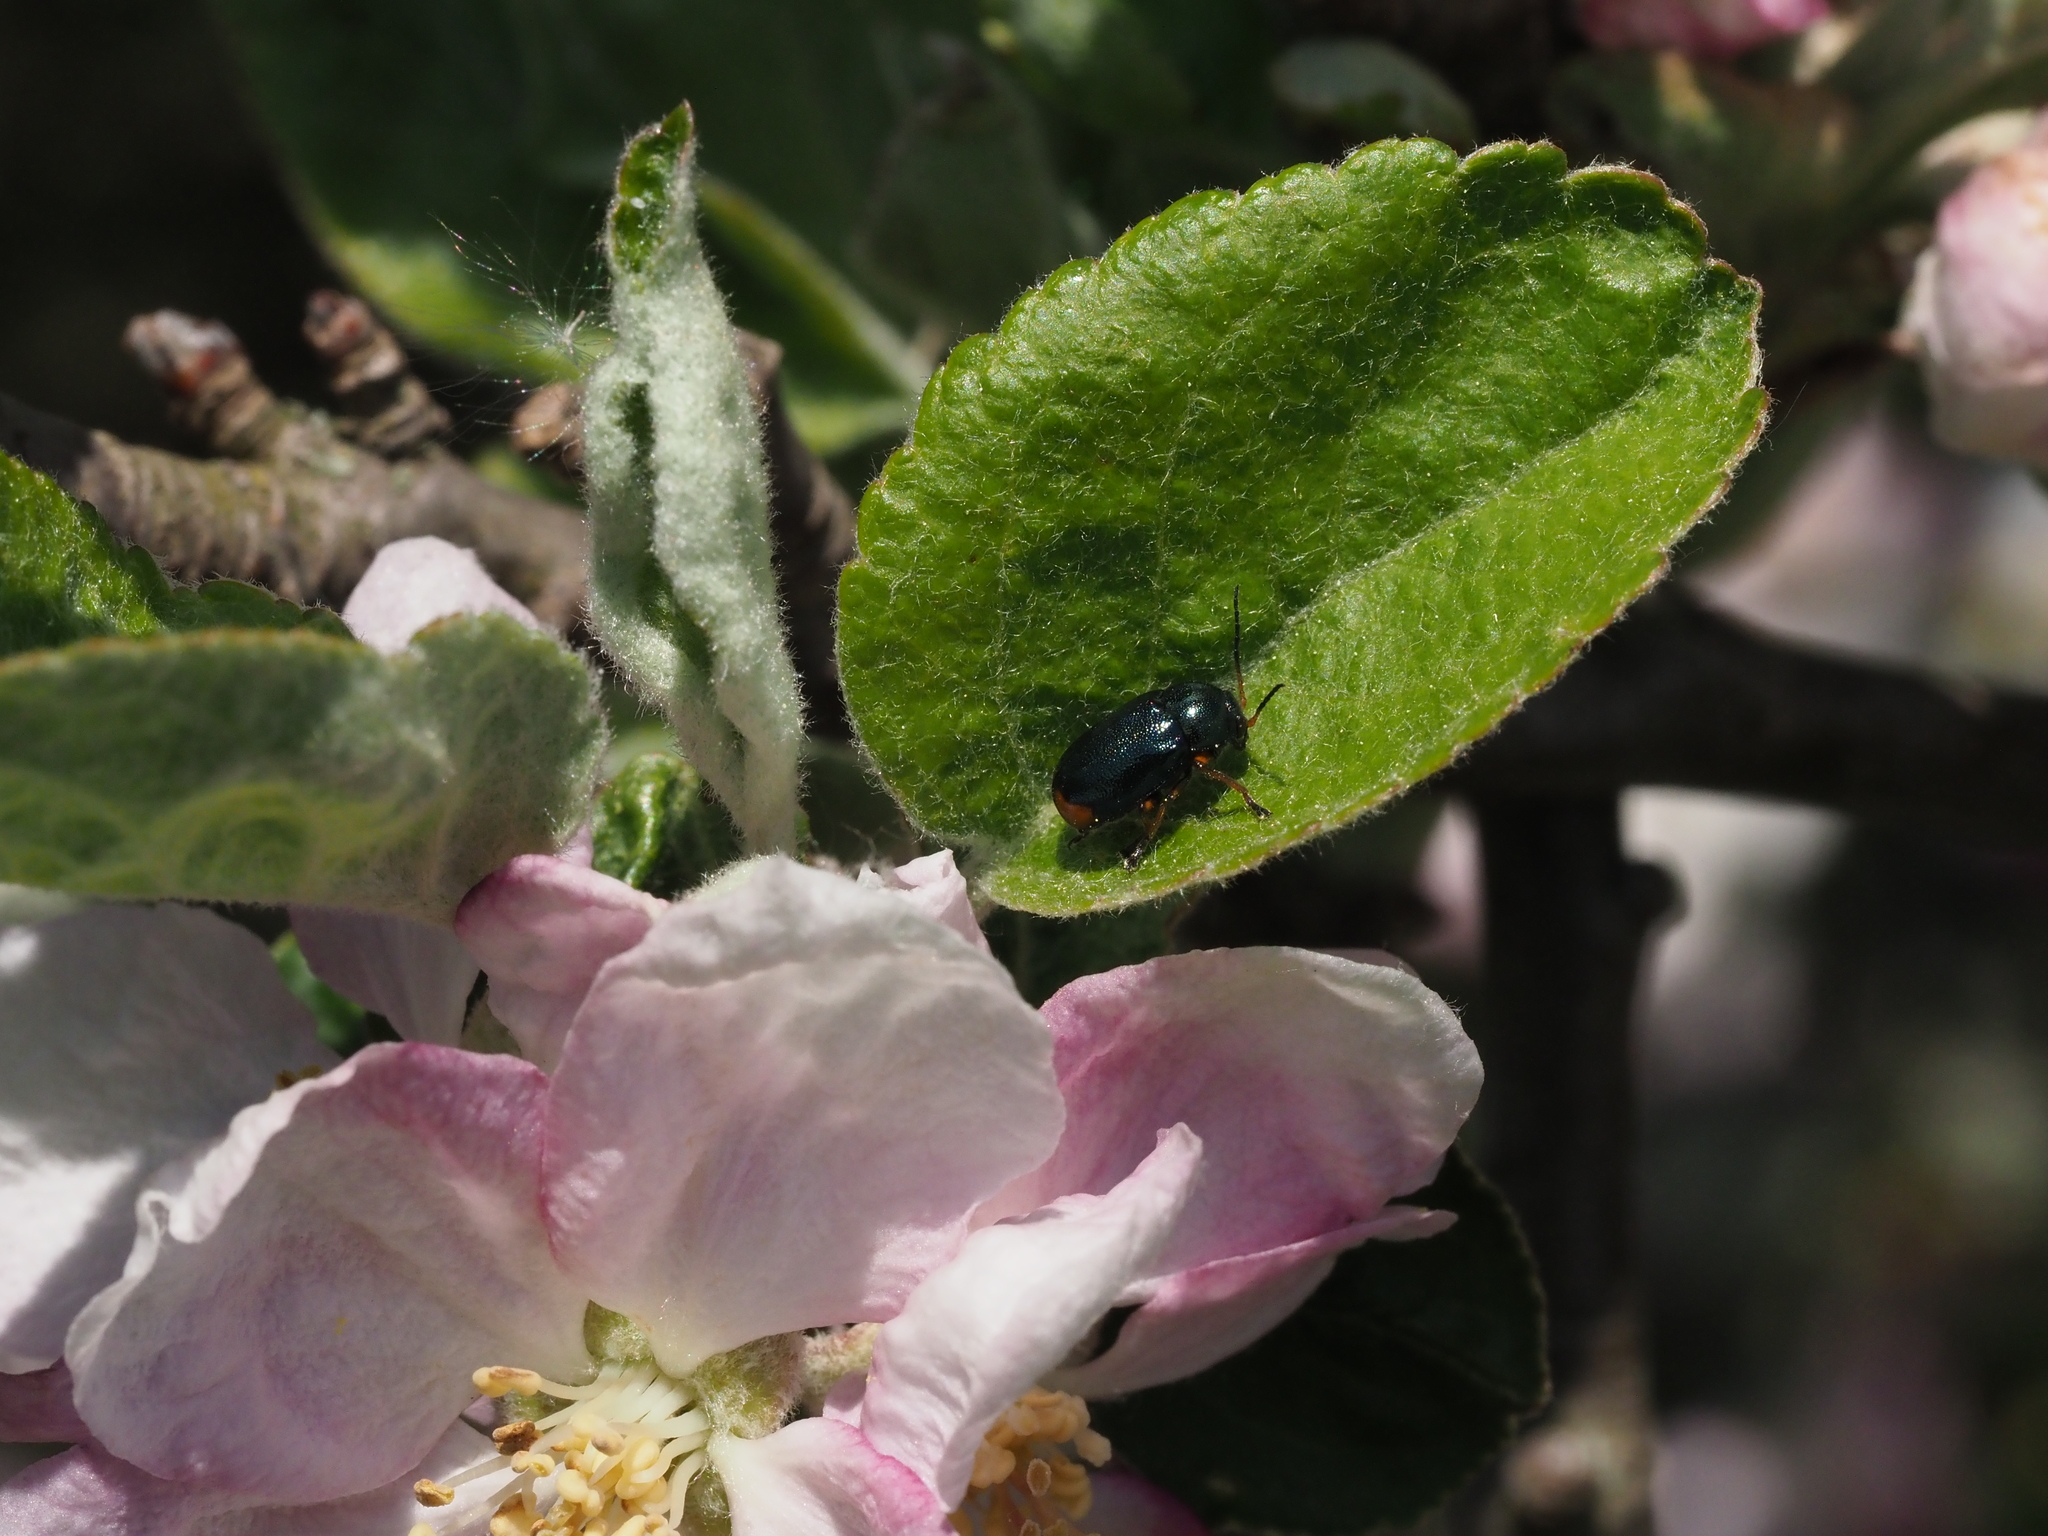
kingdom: Animalia
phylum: Arthropoda
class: Insecta
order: Coleoptera
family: Chrysomelidae
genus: Cryptocephalus
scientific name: Cryptocephalus schaefferi
